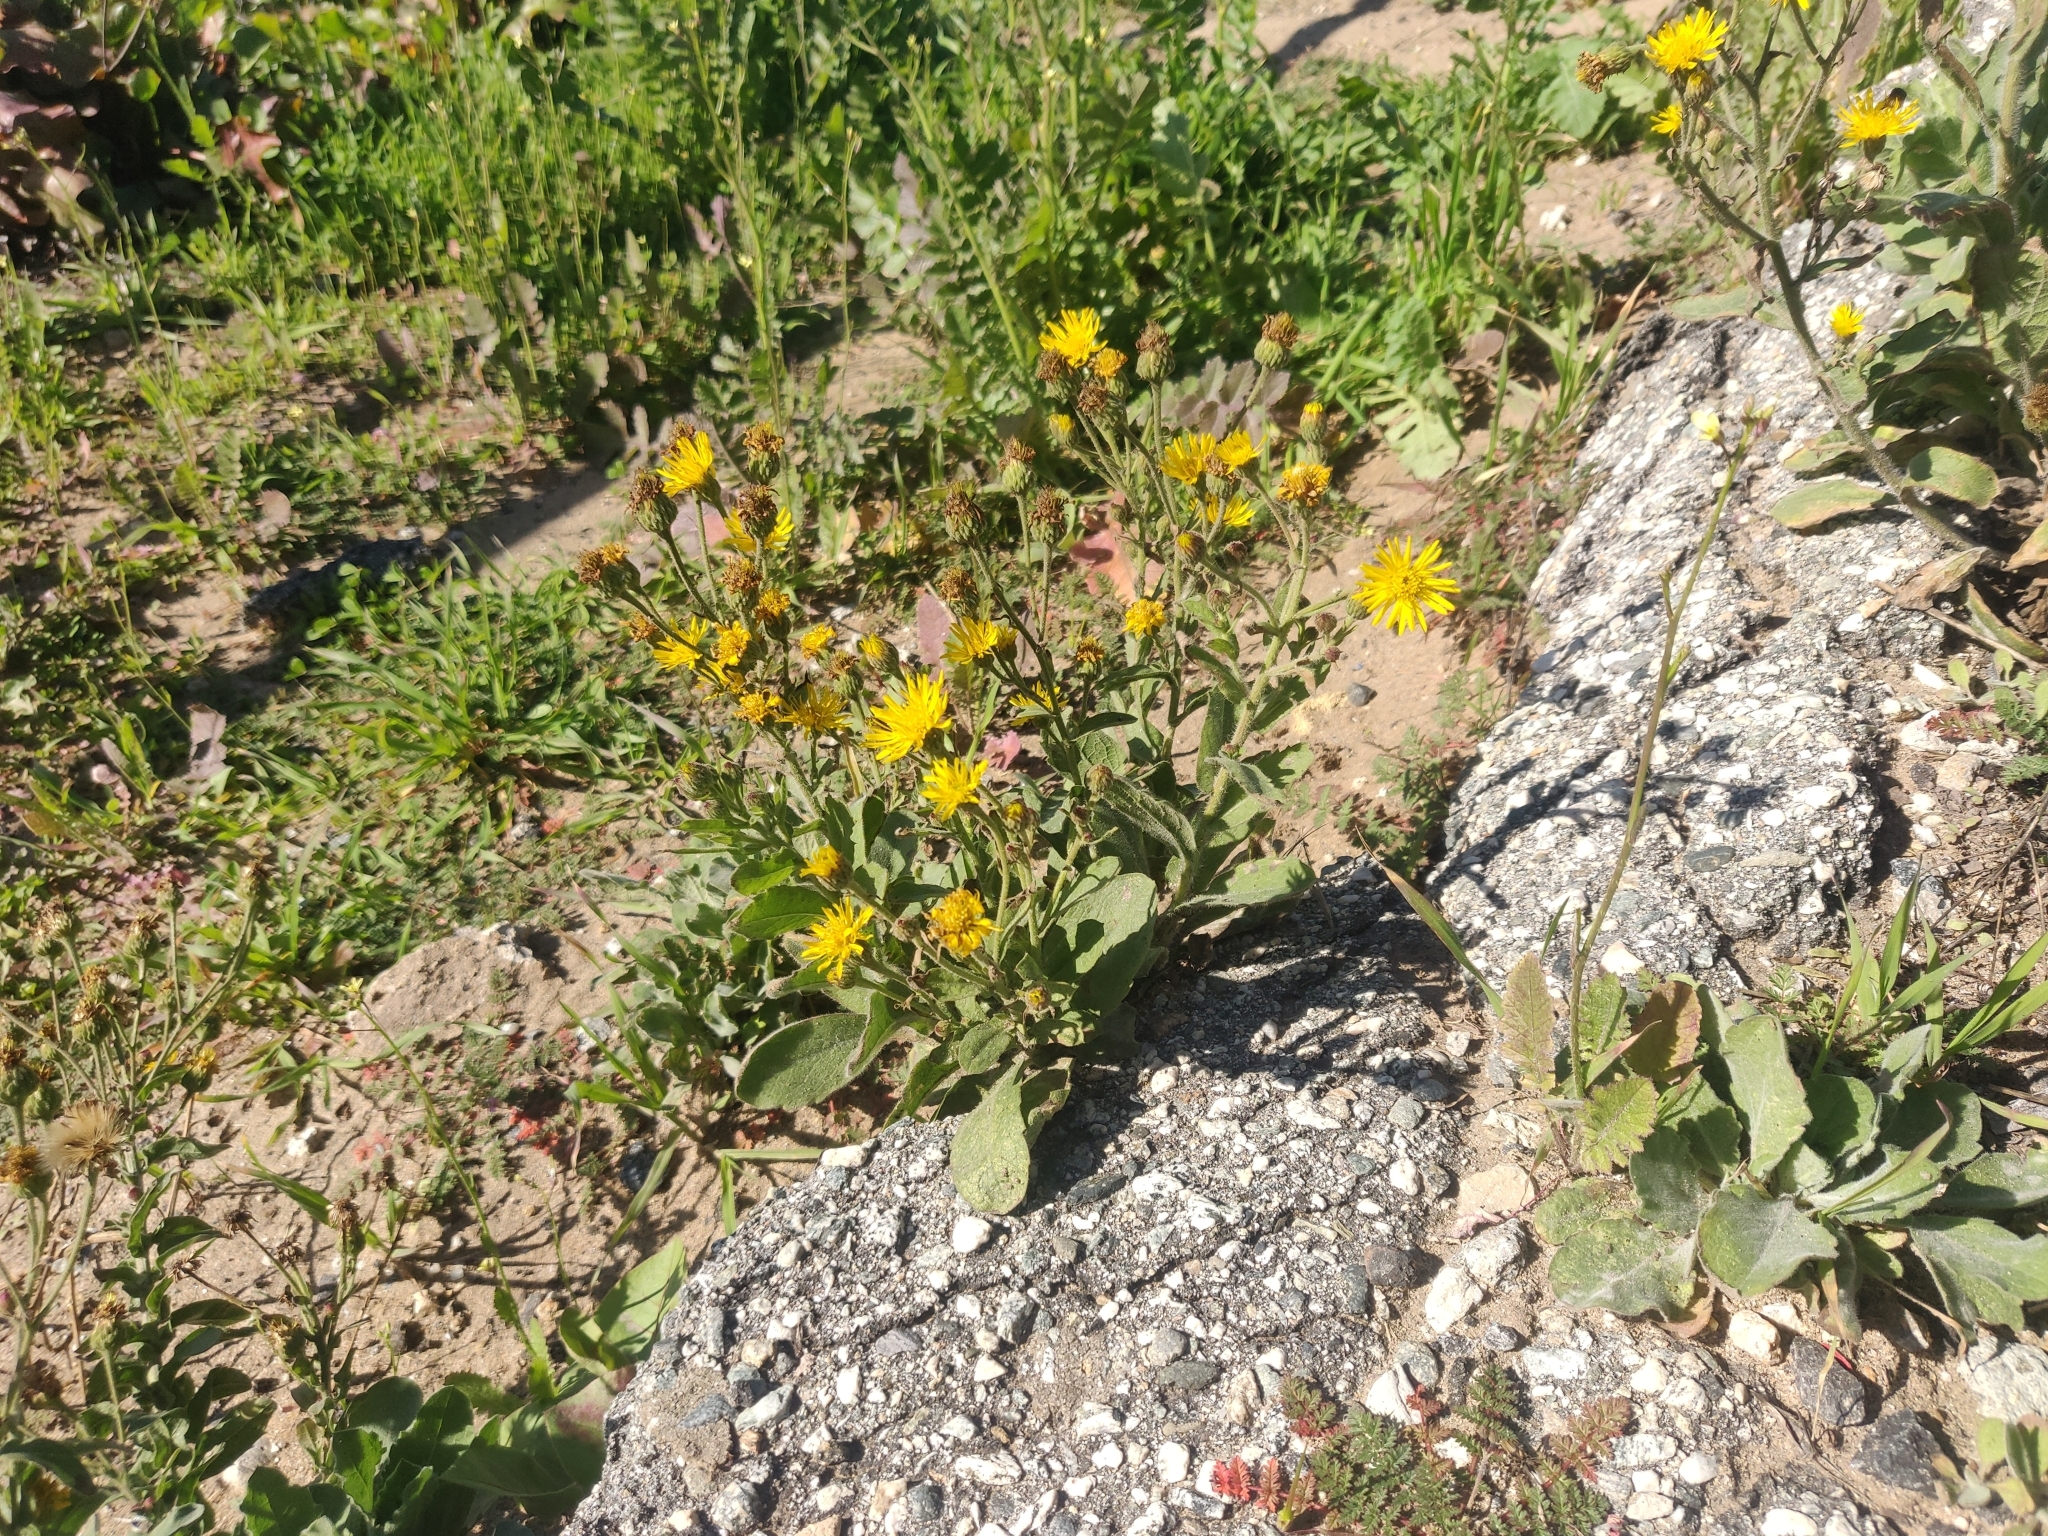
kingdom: Plantae
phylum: Tracheophyta
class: Magnoliopsida
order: Asterales
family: Asteraceae
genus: Heterotheca
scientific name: Heterotheca grandiflora
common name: Telegraphweed
